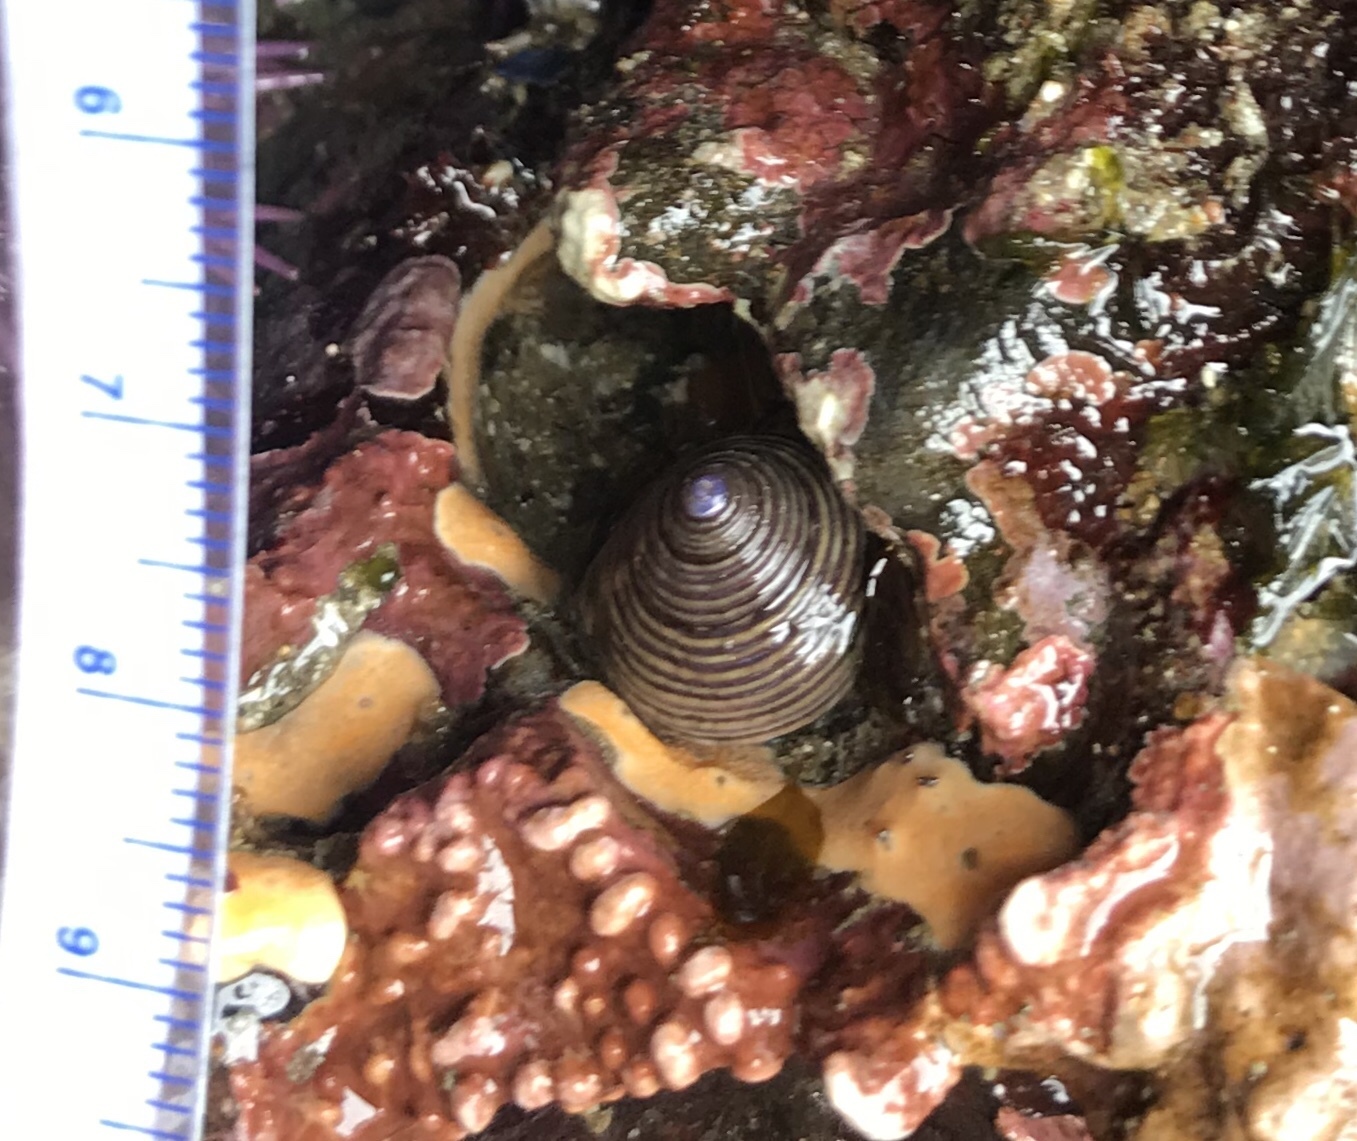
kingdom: Animalia
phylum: Mollusca
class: Gastropoda
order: Trochida
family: Calliostomatidae
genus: Calliostoma
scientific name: Calliostoma ligatum
